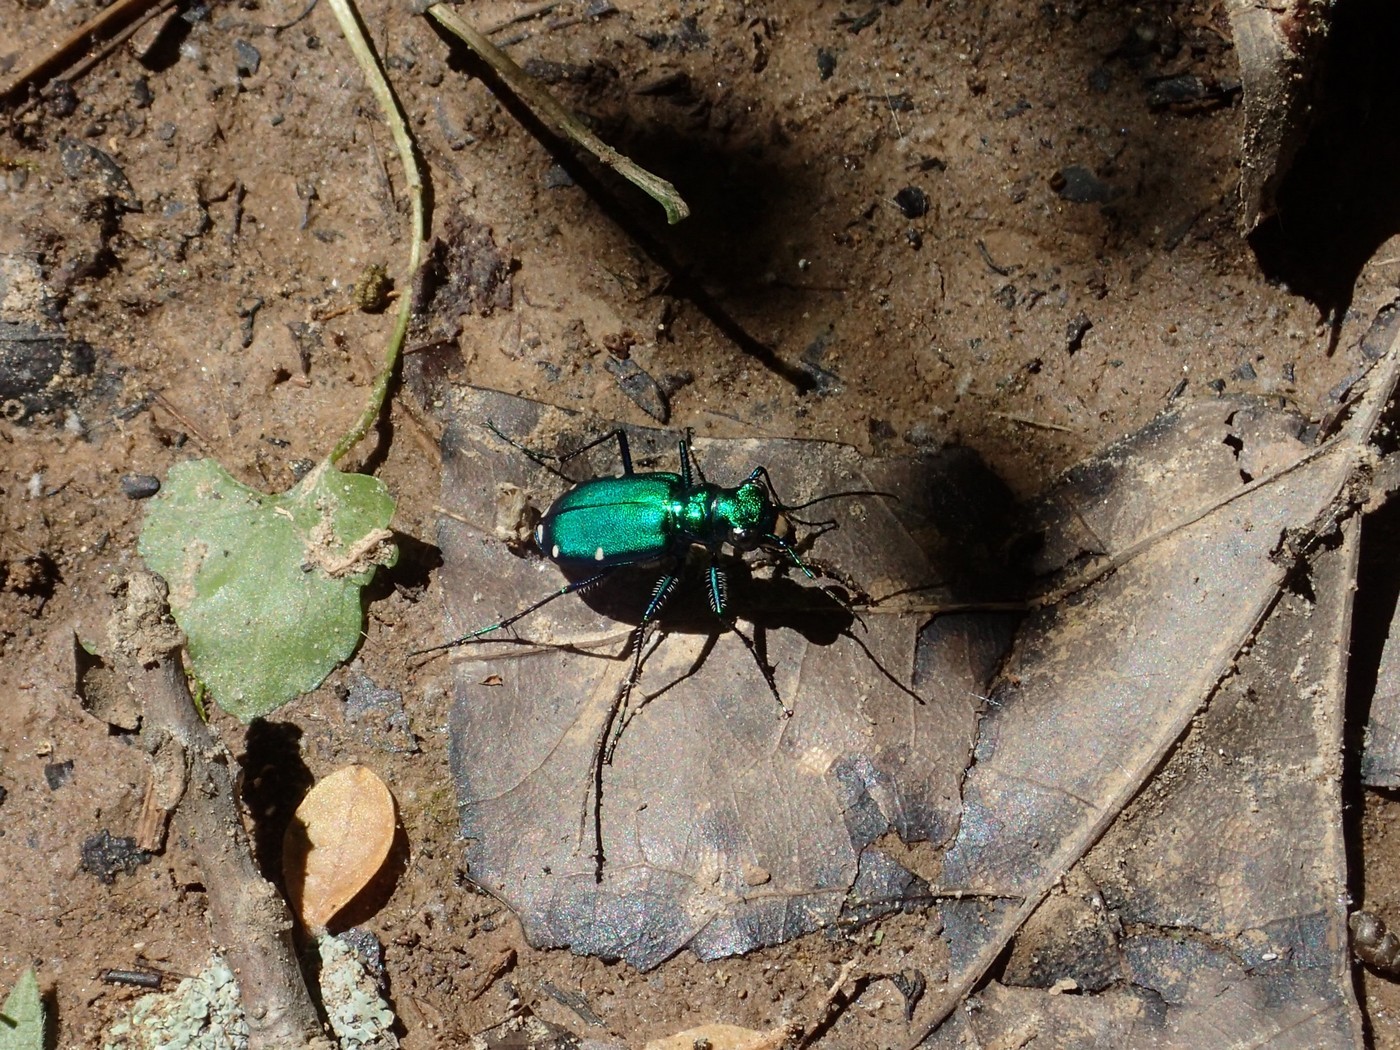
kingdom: Animalia
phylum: Arthropoda
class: Insecta
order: Coleoptera
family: Carabidae
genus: Cicindela
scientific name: Cicindela sexguttata
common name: Six-spotted tiger beetle
